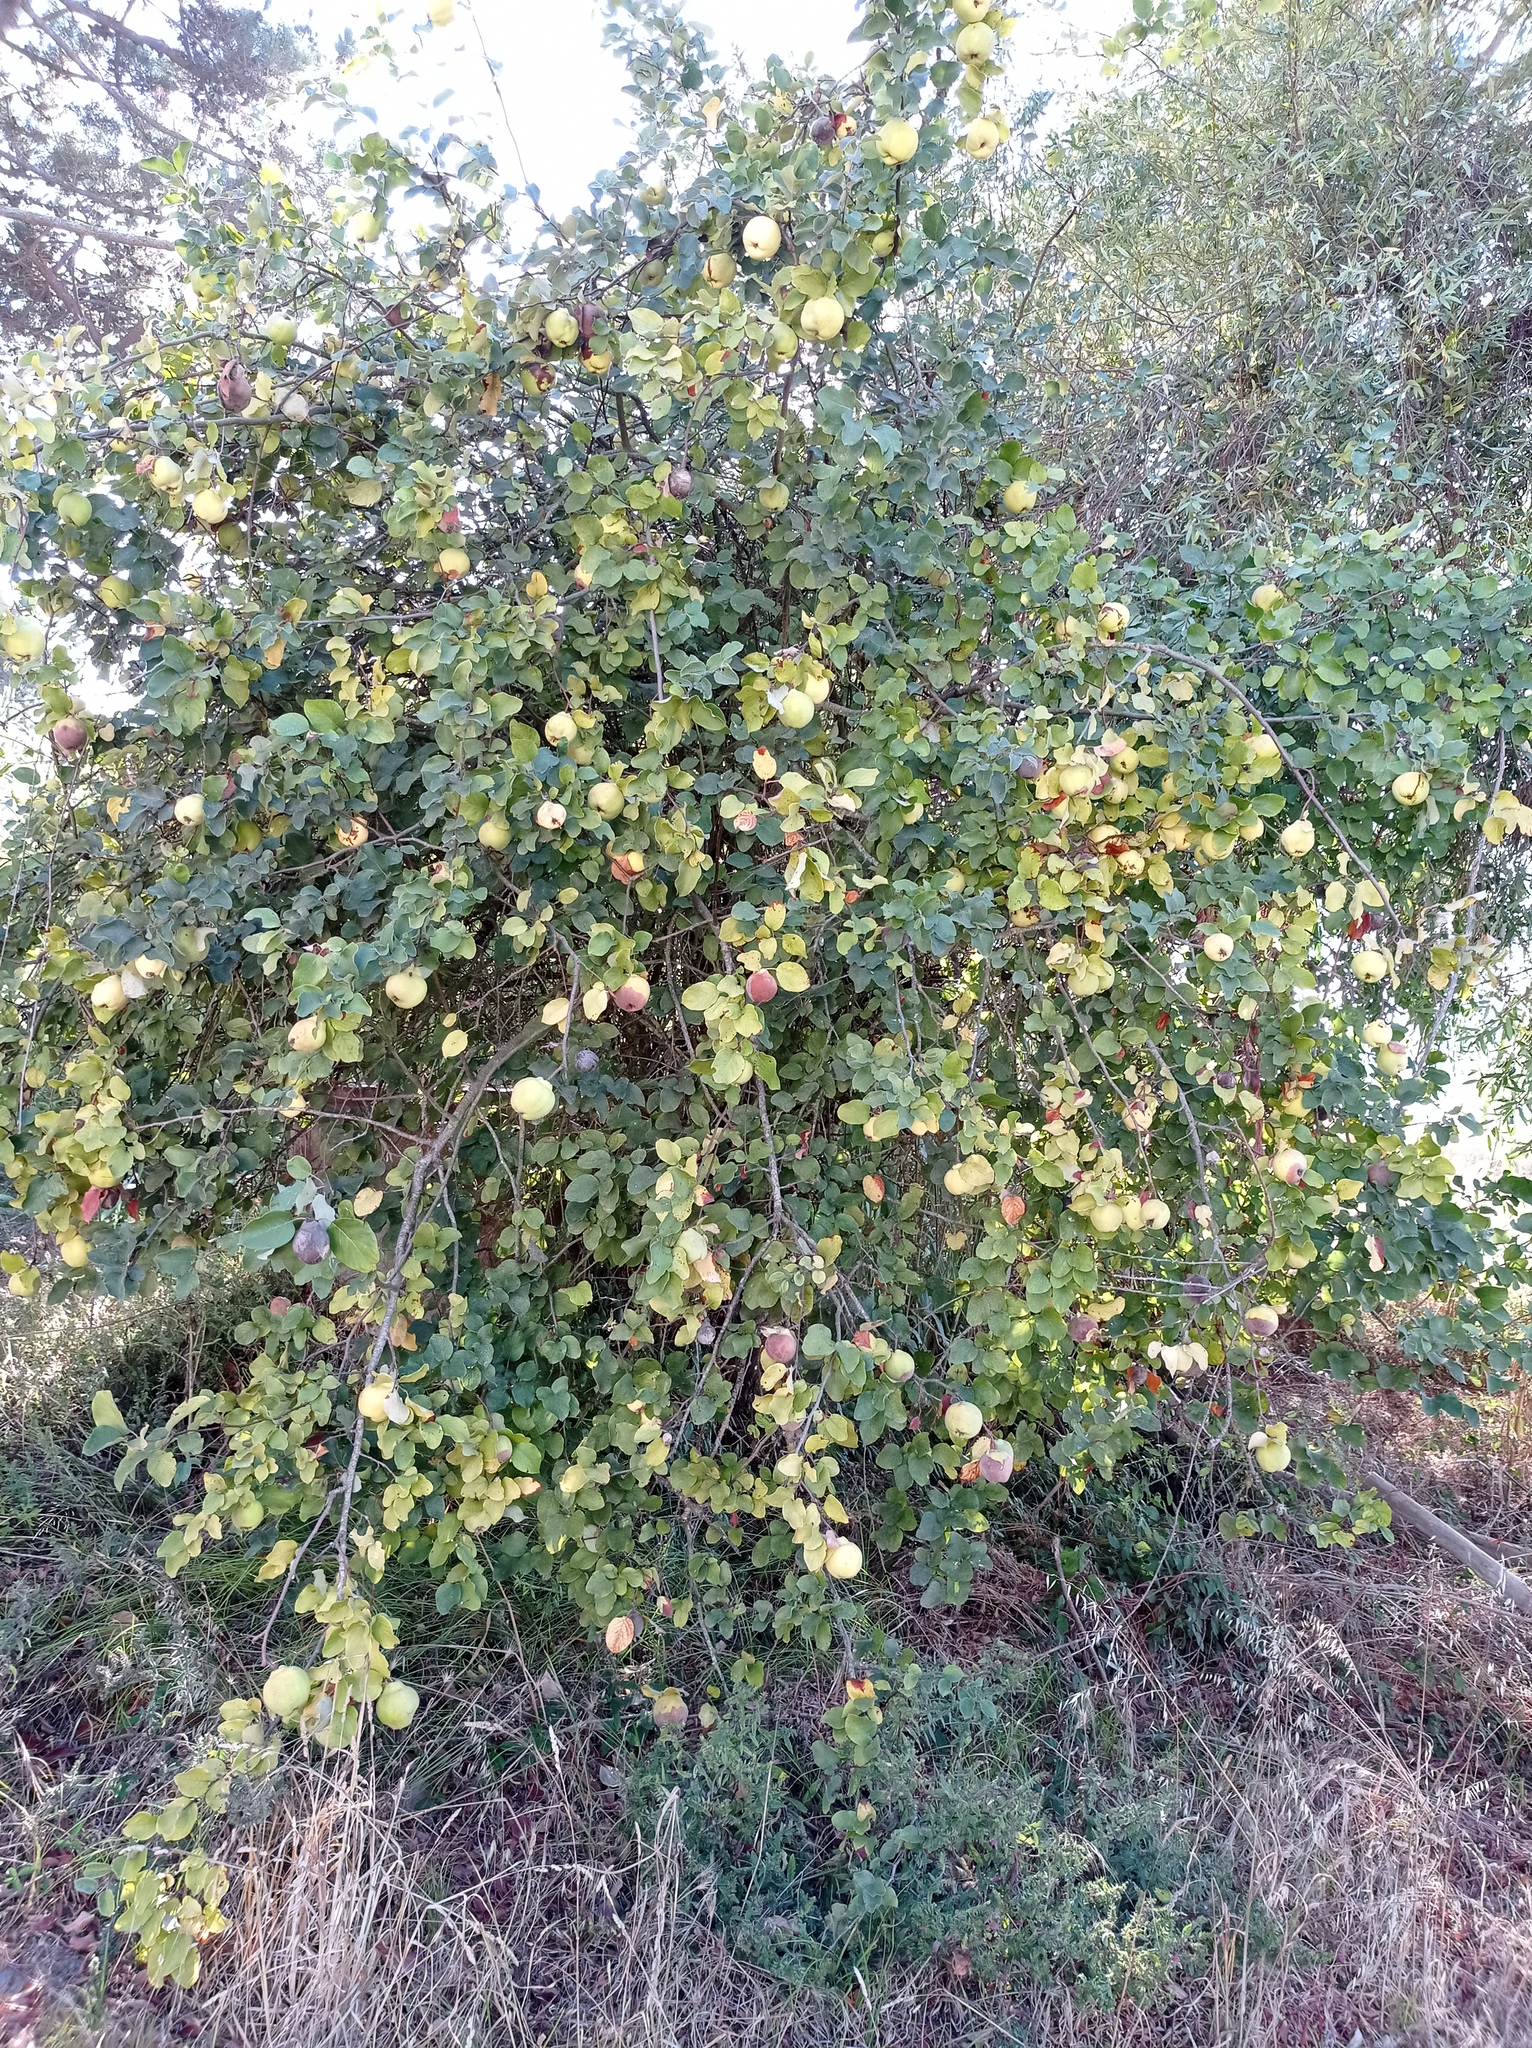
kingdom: Plantae
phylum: Tracheophyta
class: Magnoliopsida
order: Rosales
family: Rosaceae
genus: Cydonia
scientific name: Cydonia oblonga
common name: Quince
